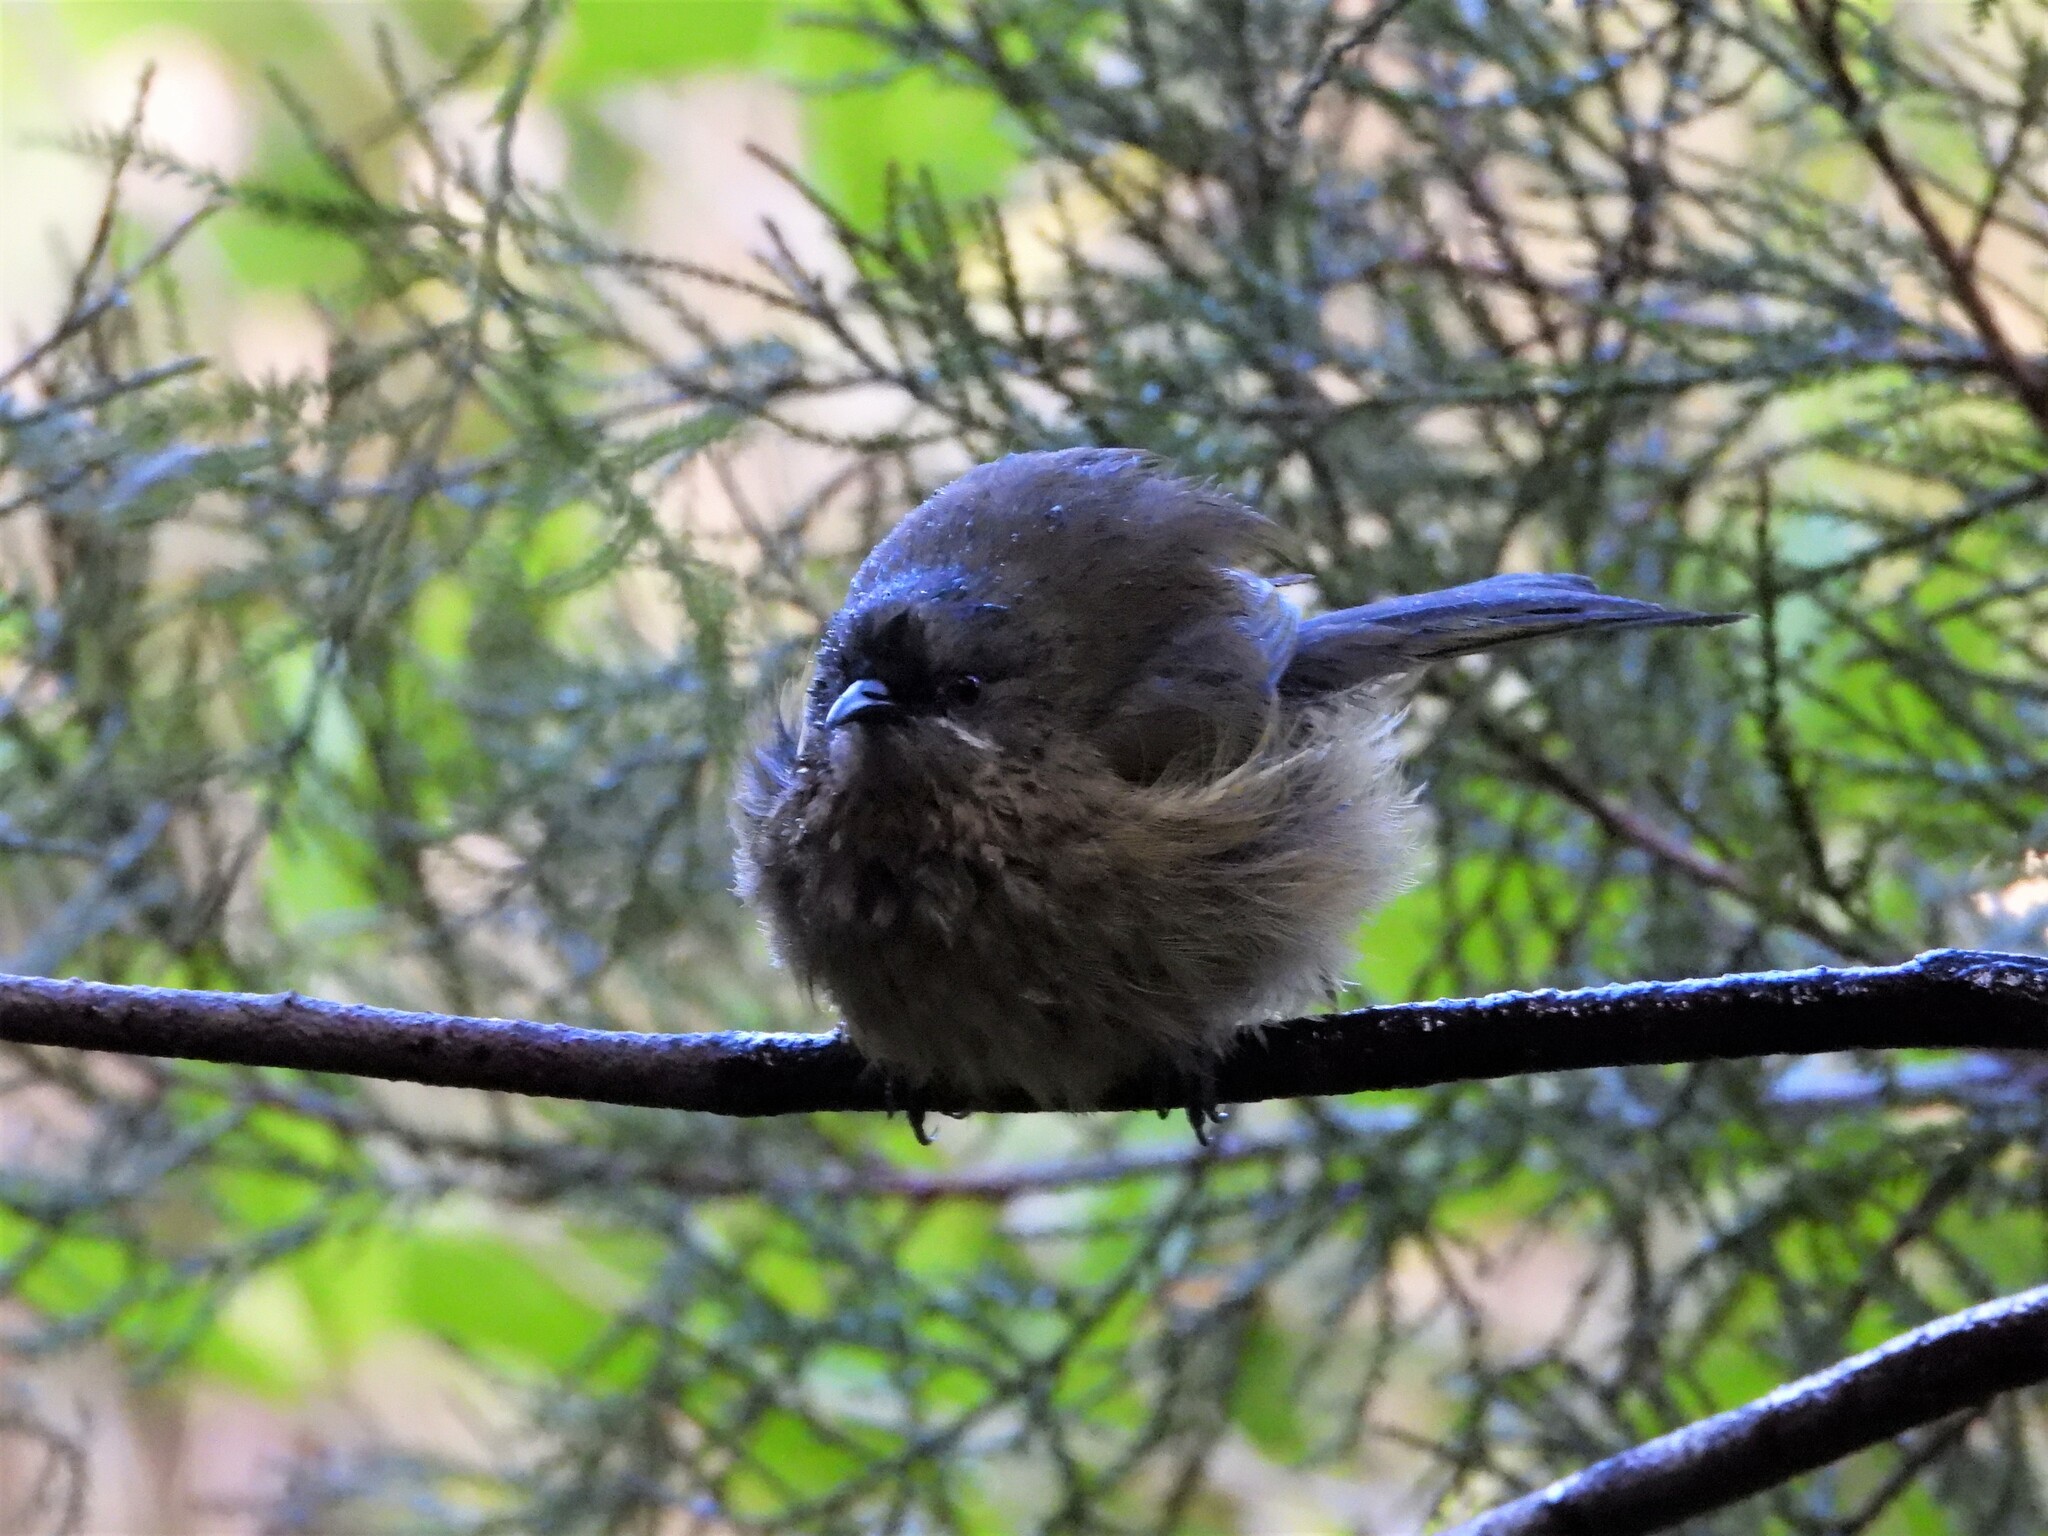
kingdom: Animalia
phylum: Chordata
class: Aves
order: Passeriformes
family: Meliphagidae
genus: Anthornis
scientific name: Anthornis melanura
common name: New zealand bellbird
